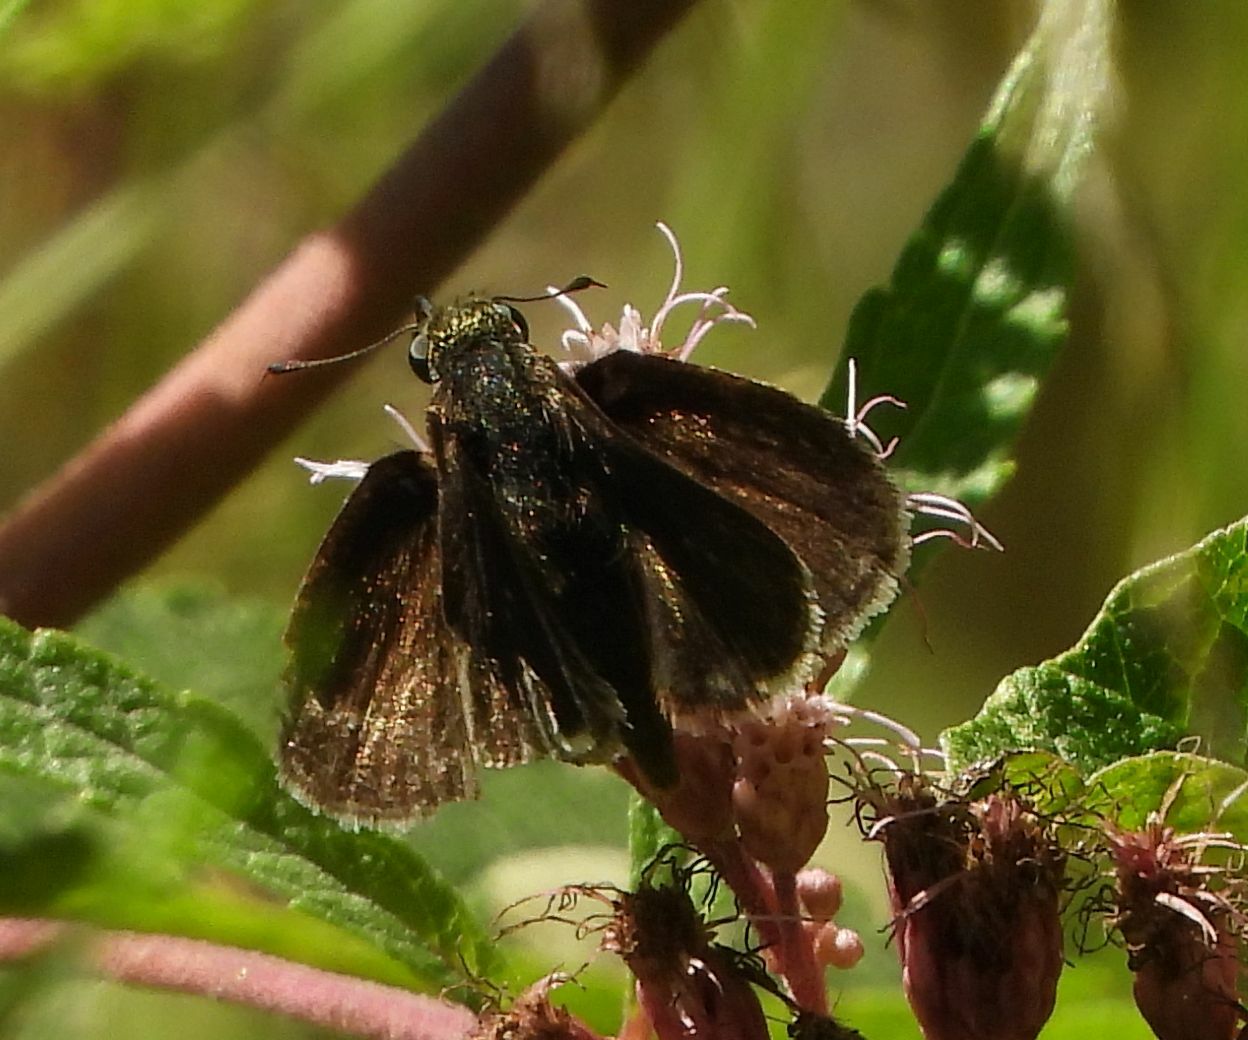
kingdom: Animalia
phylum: Arthropoda
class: Insecta
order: Lepidoptera
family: Hesperiidae
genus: Euphyes
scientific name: Euphyes vestris
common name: Dun skipper
